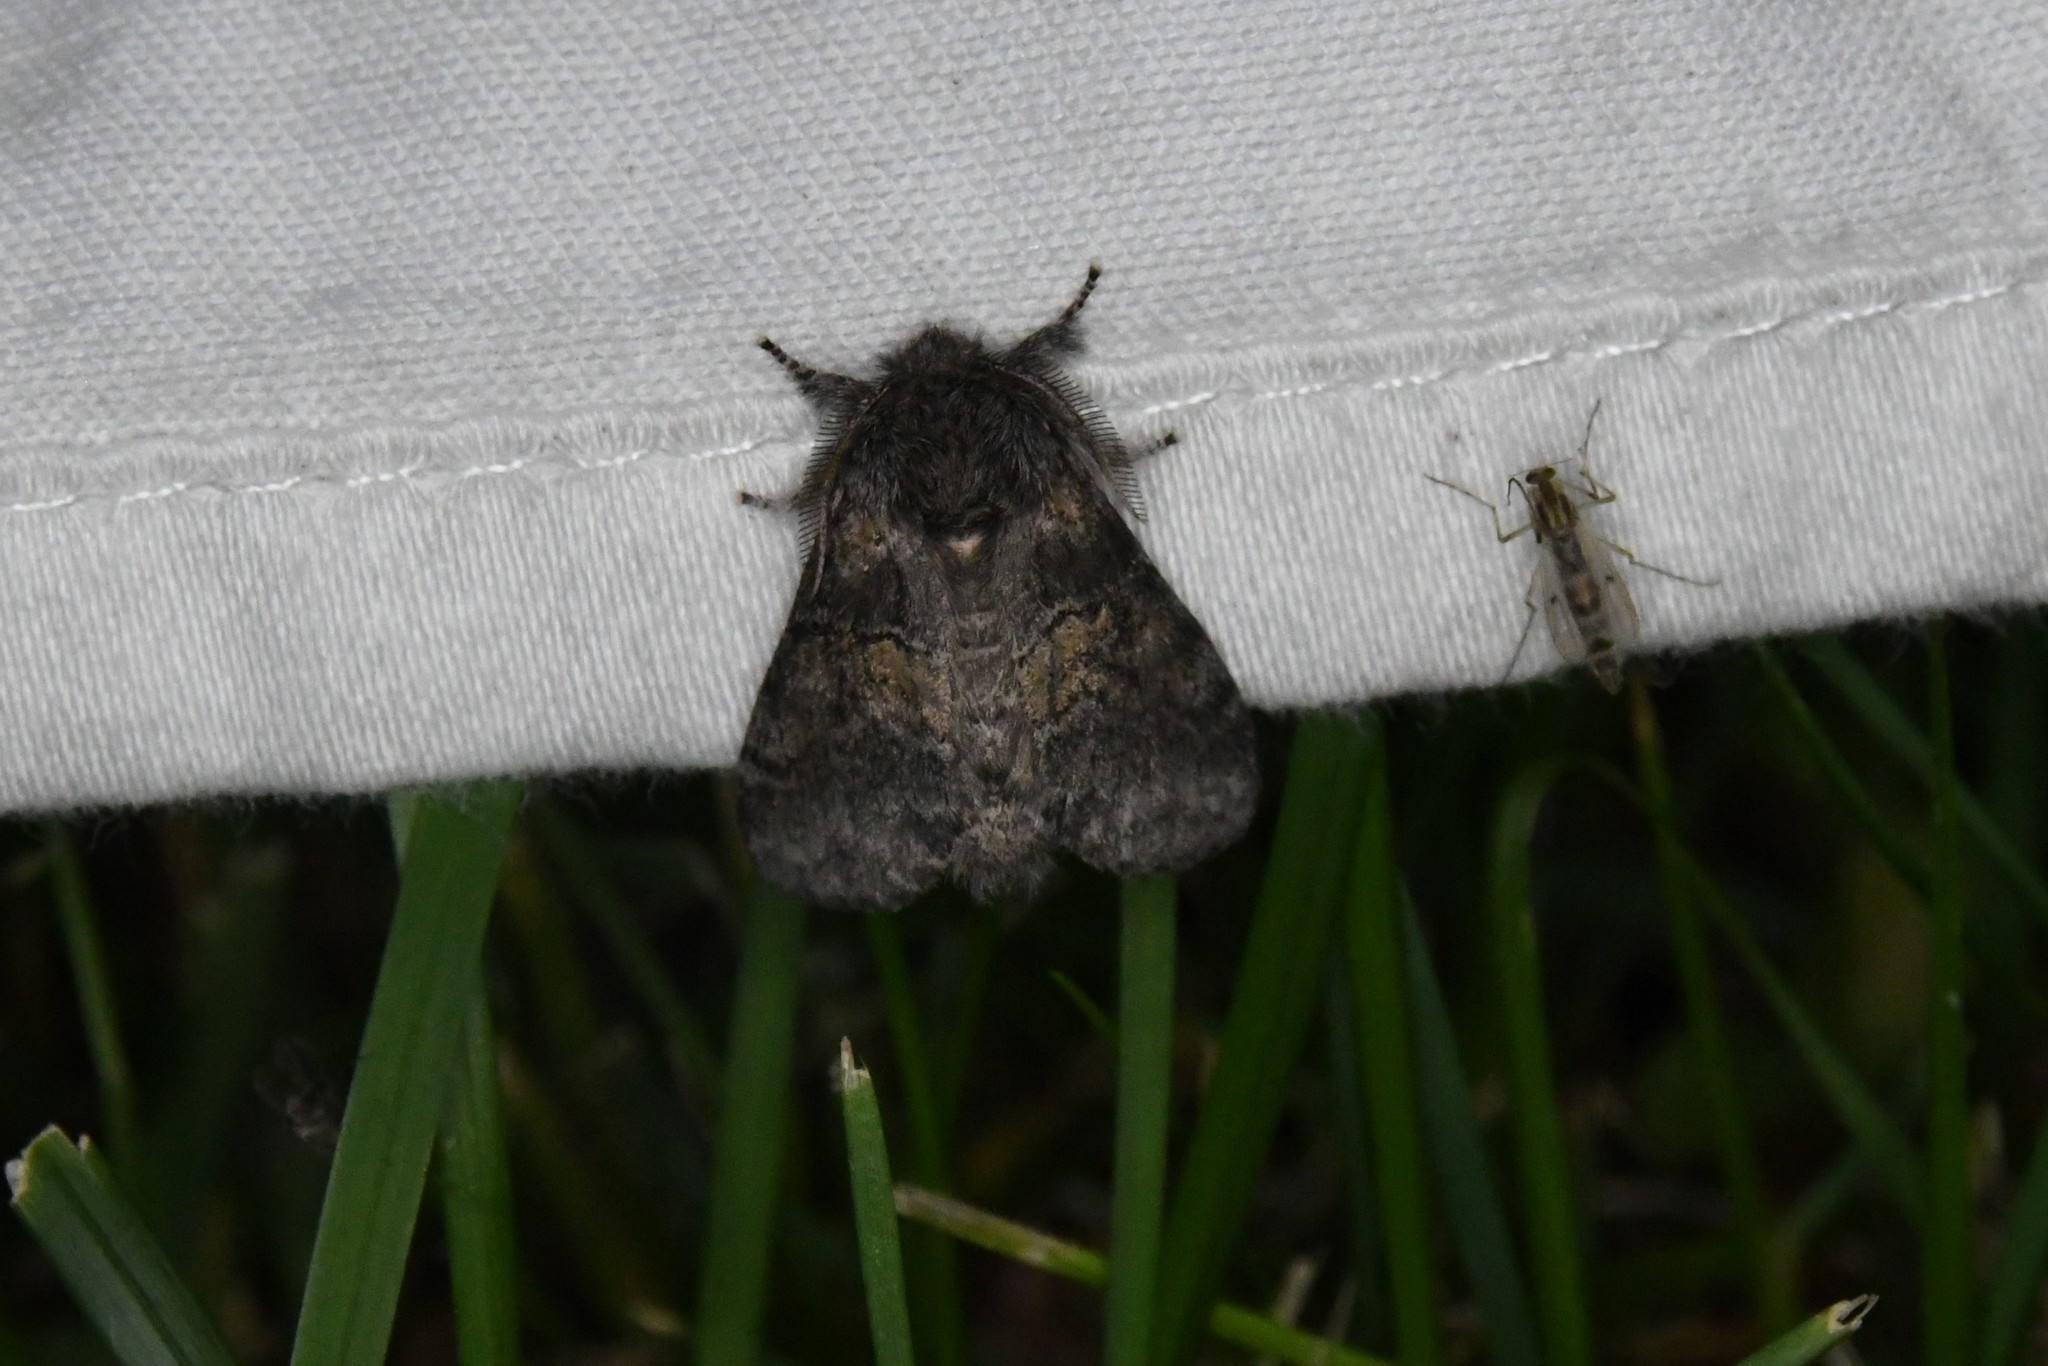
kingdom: Animalia
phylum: Arthropoda
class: Insecta
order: Lepidoptera
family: Notodontidae
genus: Gluphisia
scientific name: Gluphisia septentrionis
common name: Common gluphisia
